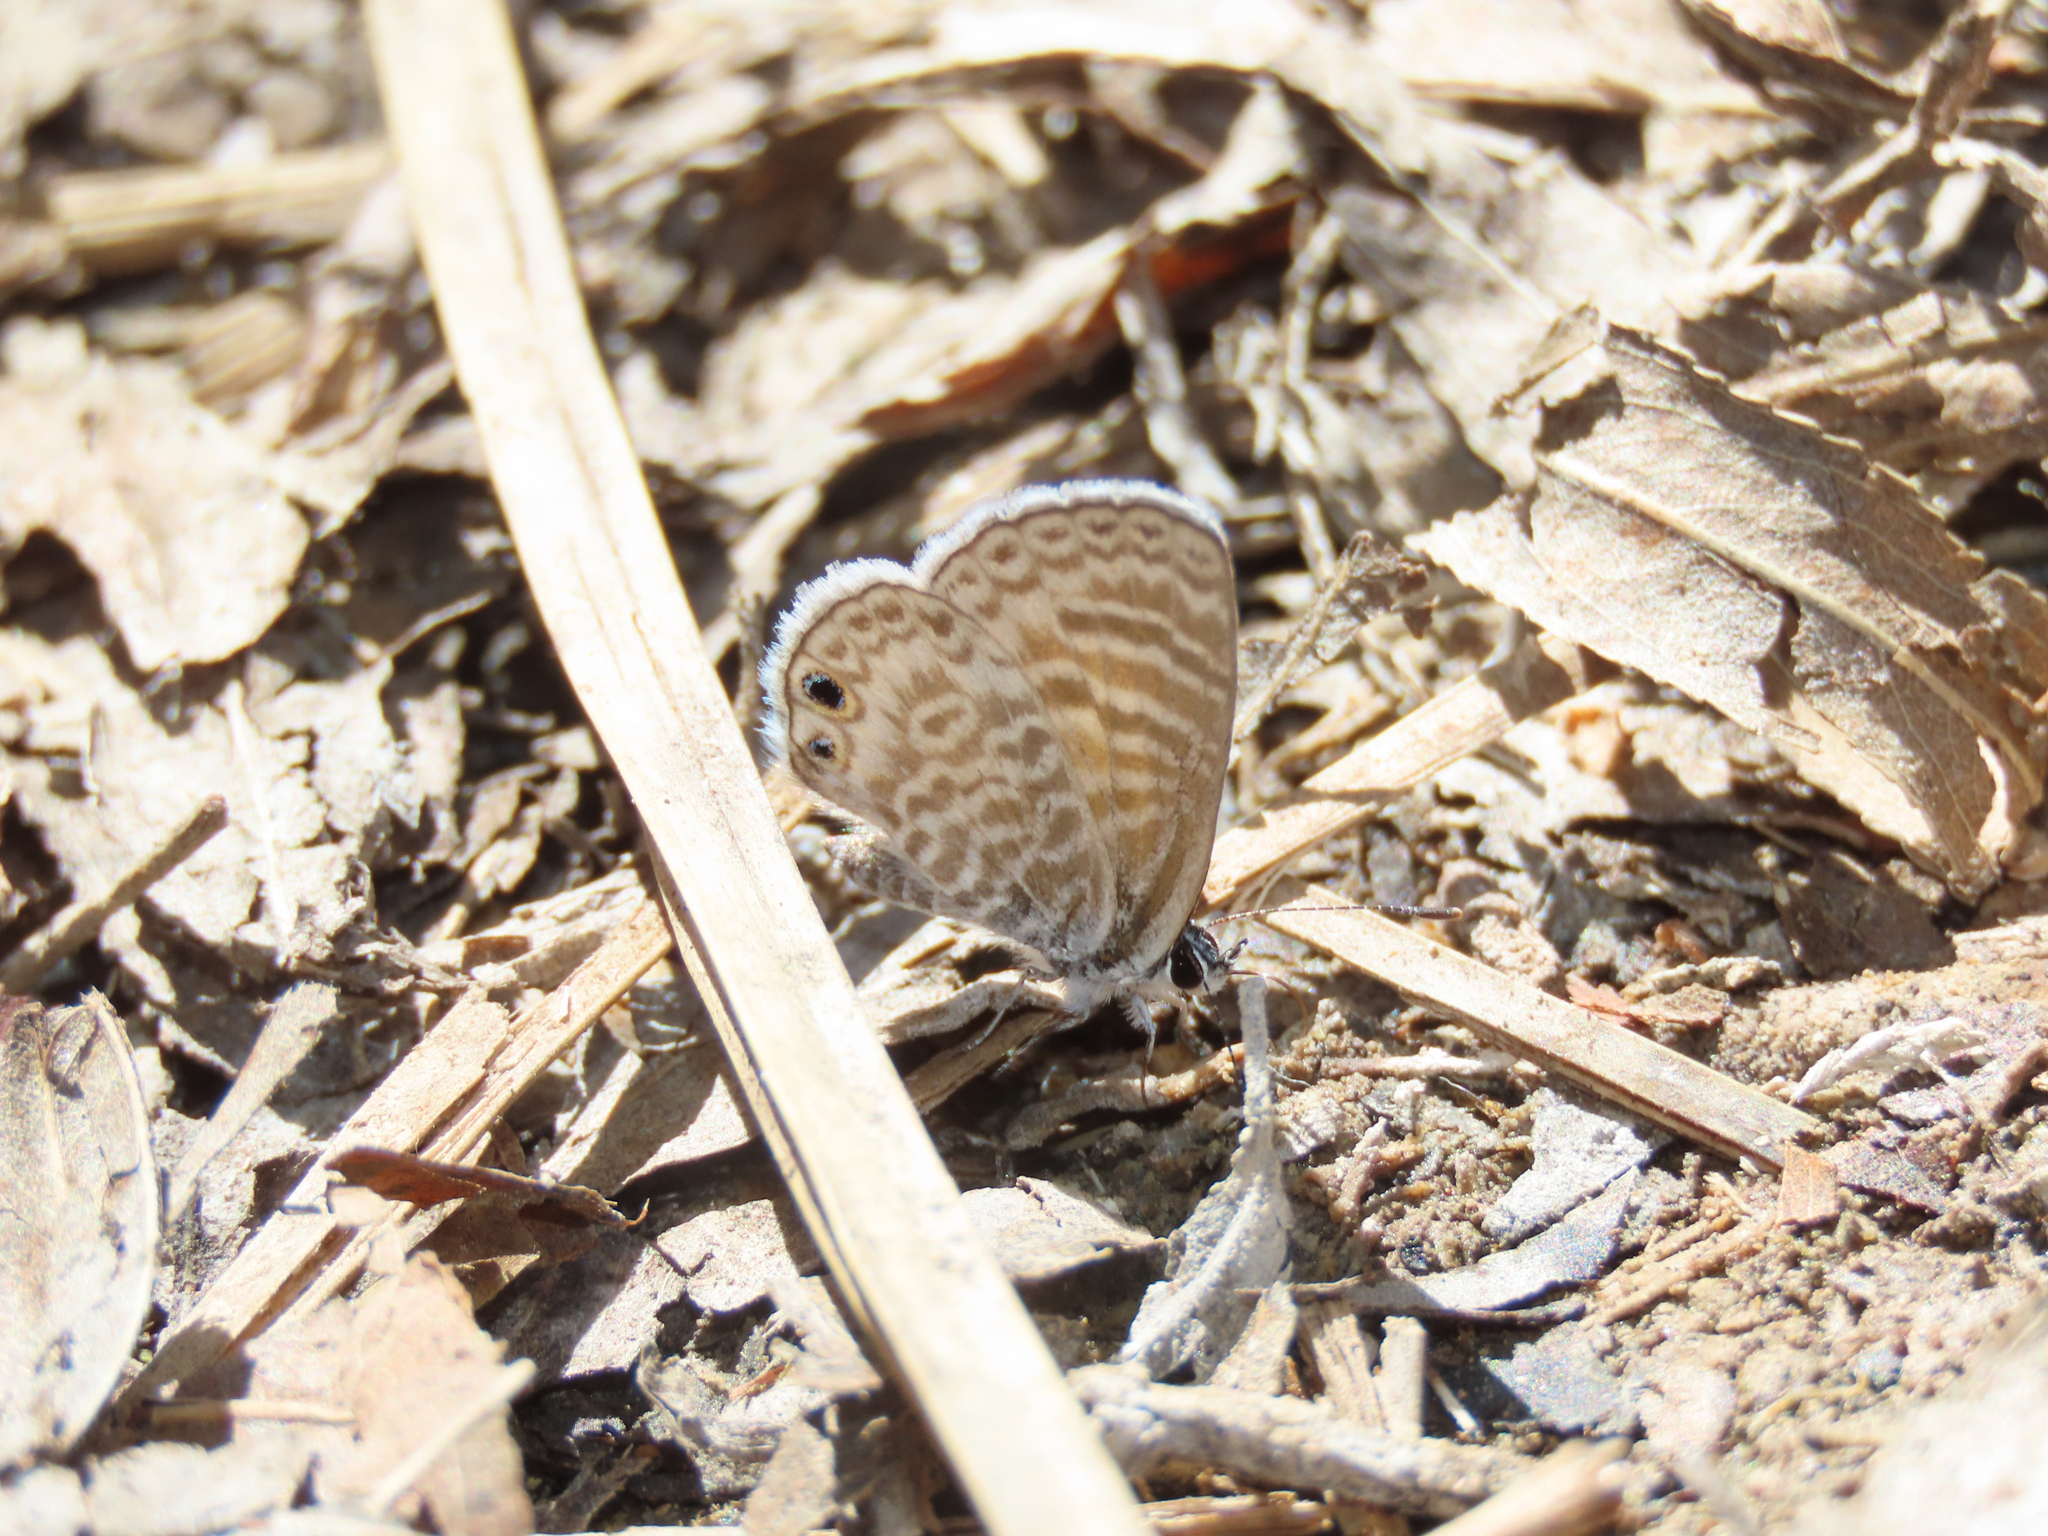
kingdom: Animalia
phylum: Arthropoda
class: Insecta
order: Lepidoptera
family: Lycaenidae
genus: Leptotes
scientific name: Leptotes marina
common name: Marine blue
